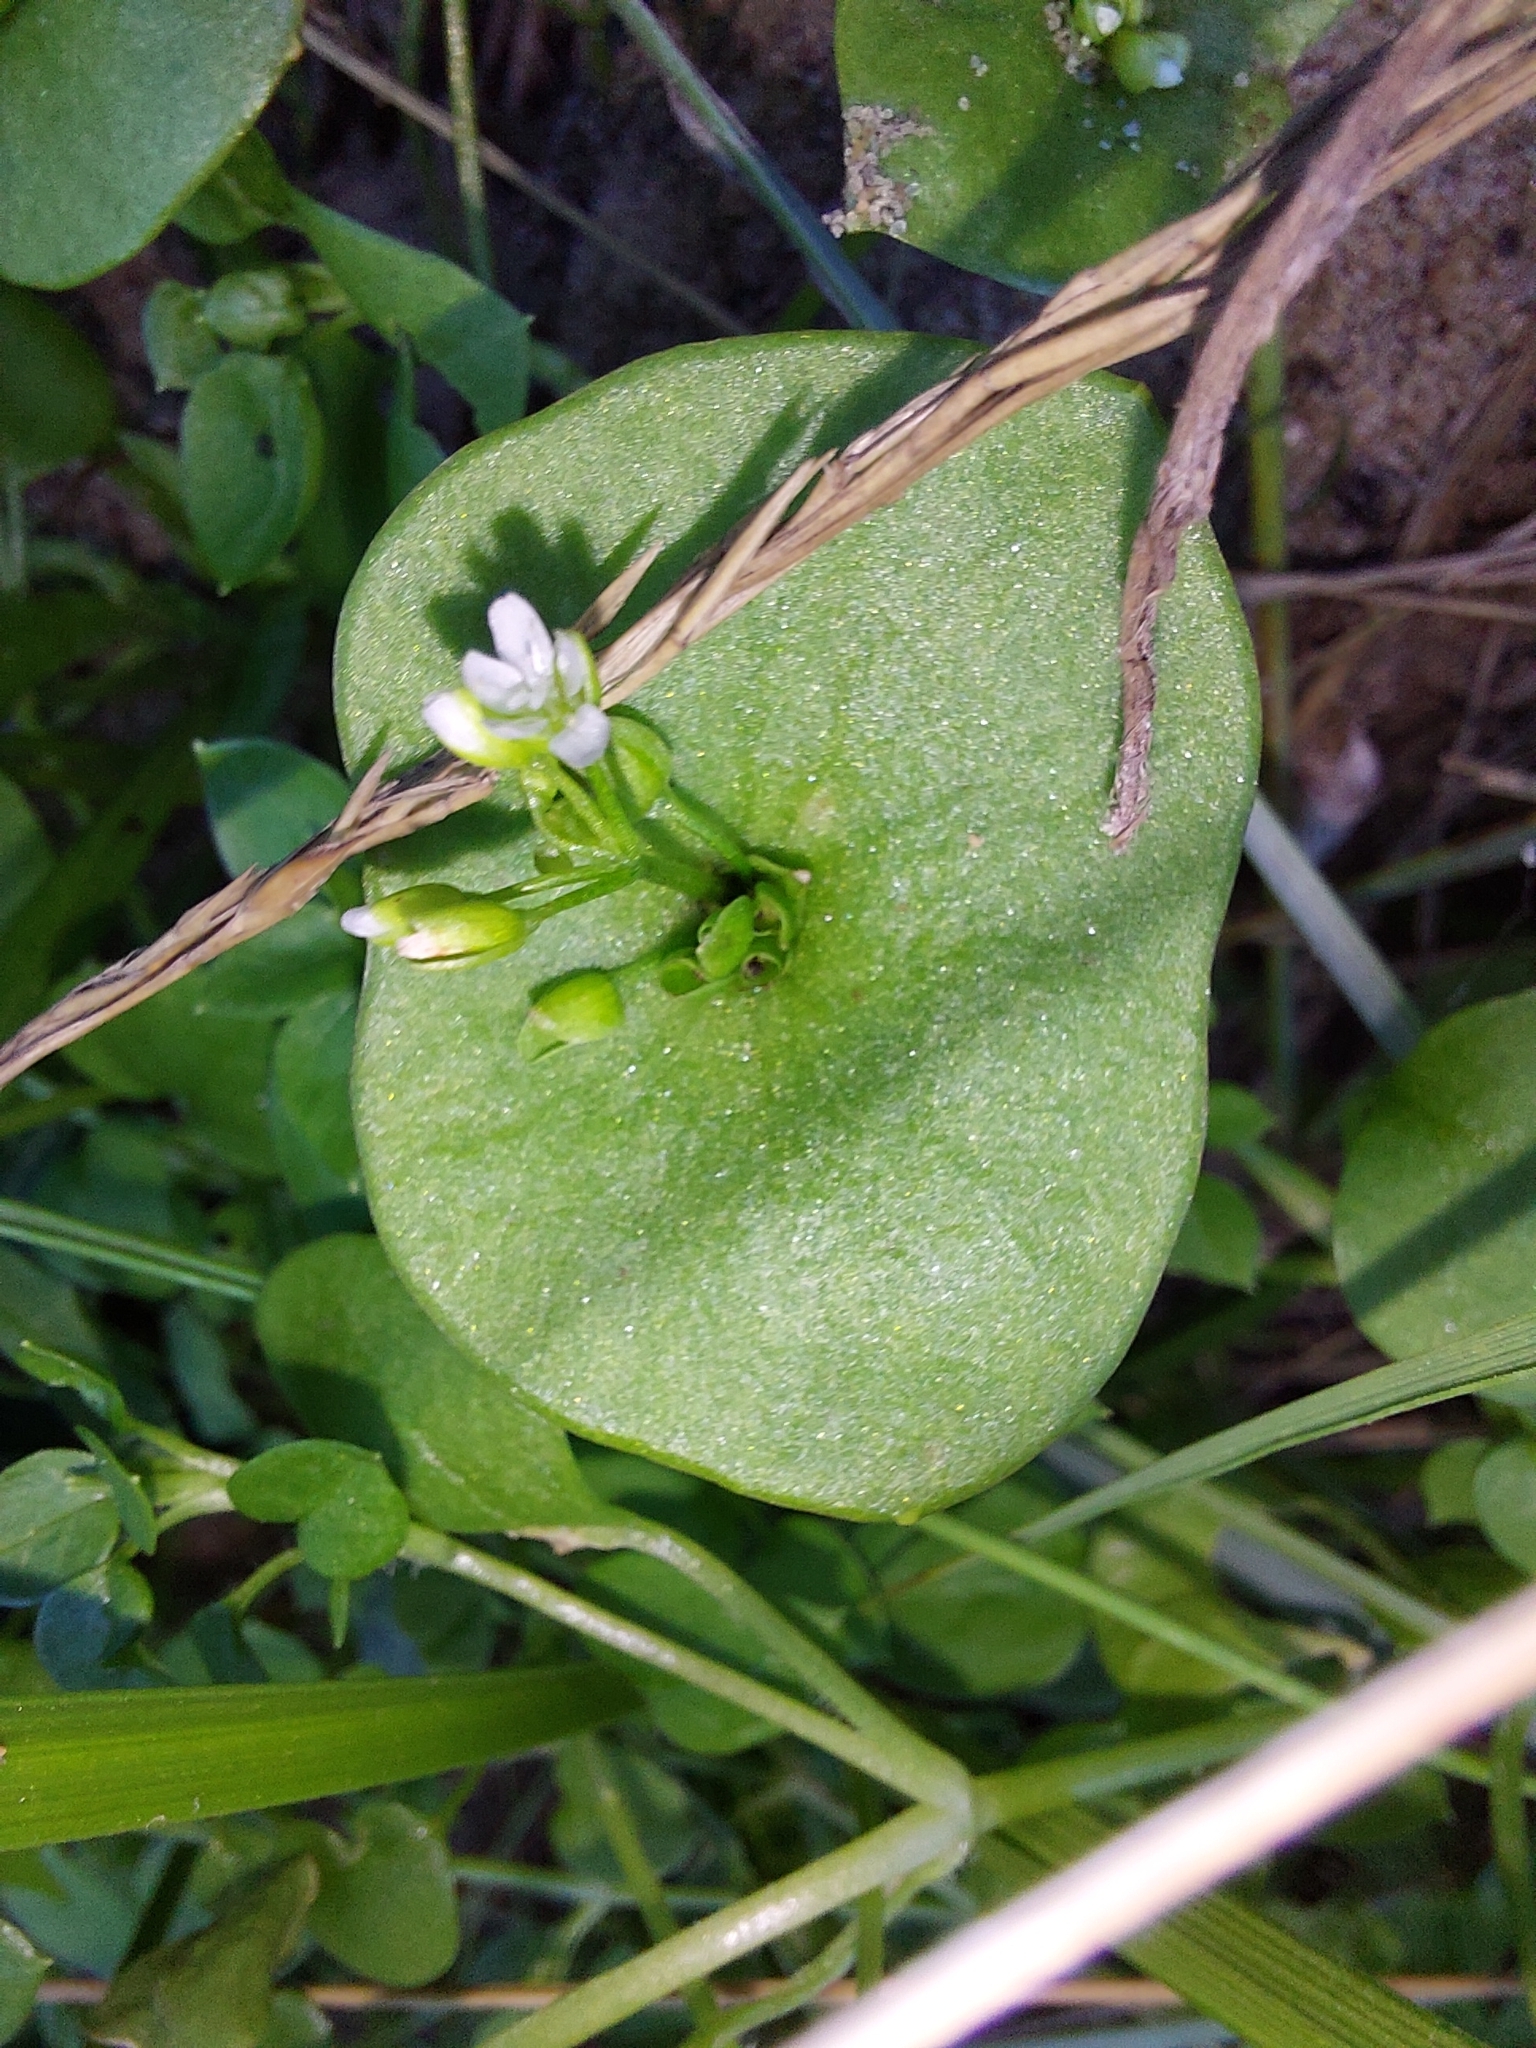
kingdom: Plantae
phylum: Tracheophyta
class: Magnoliopsida
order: Caryophyllales
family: Montiaceae
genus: Claytonia
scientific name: Claytonia perfoliata
